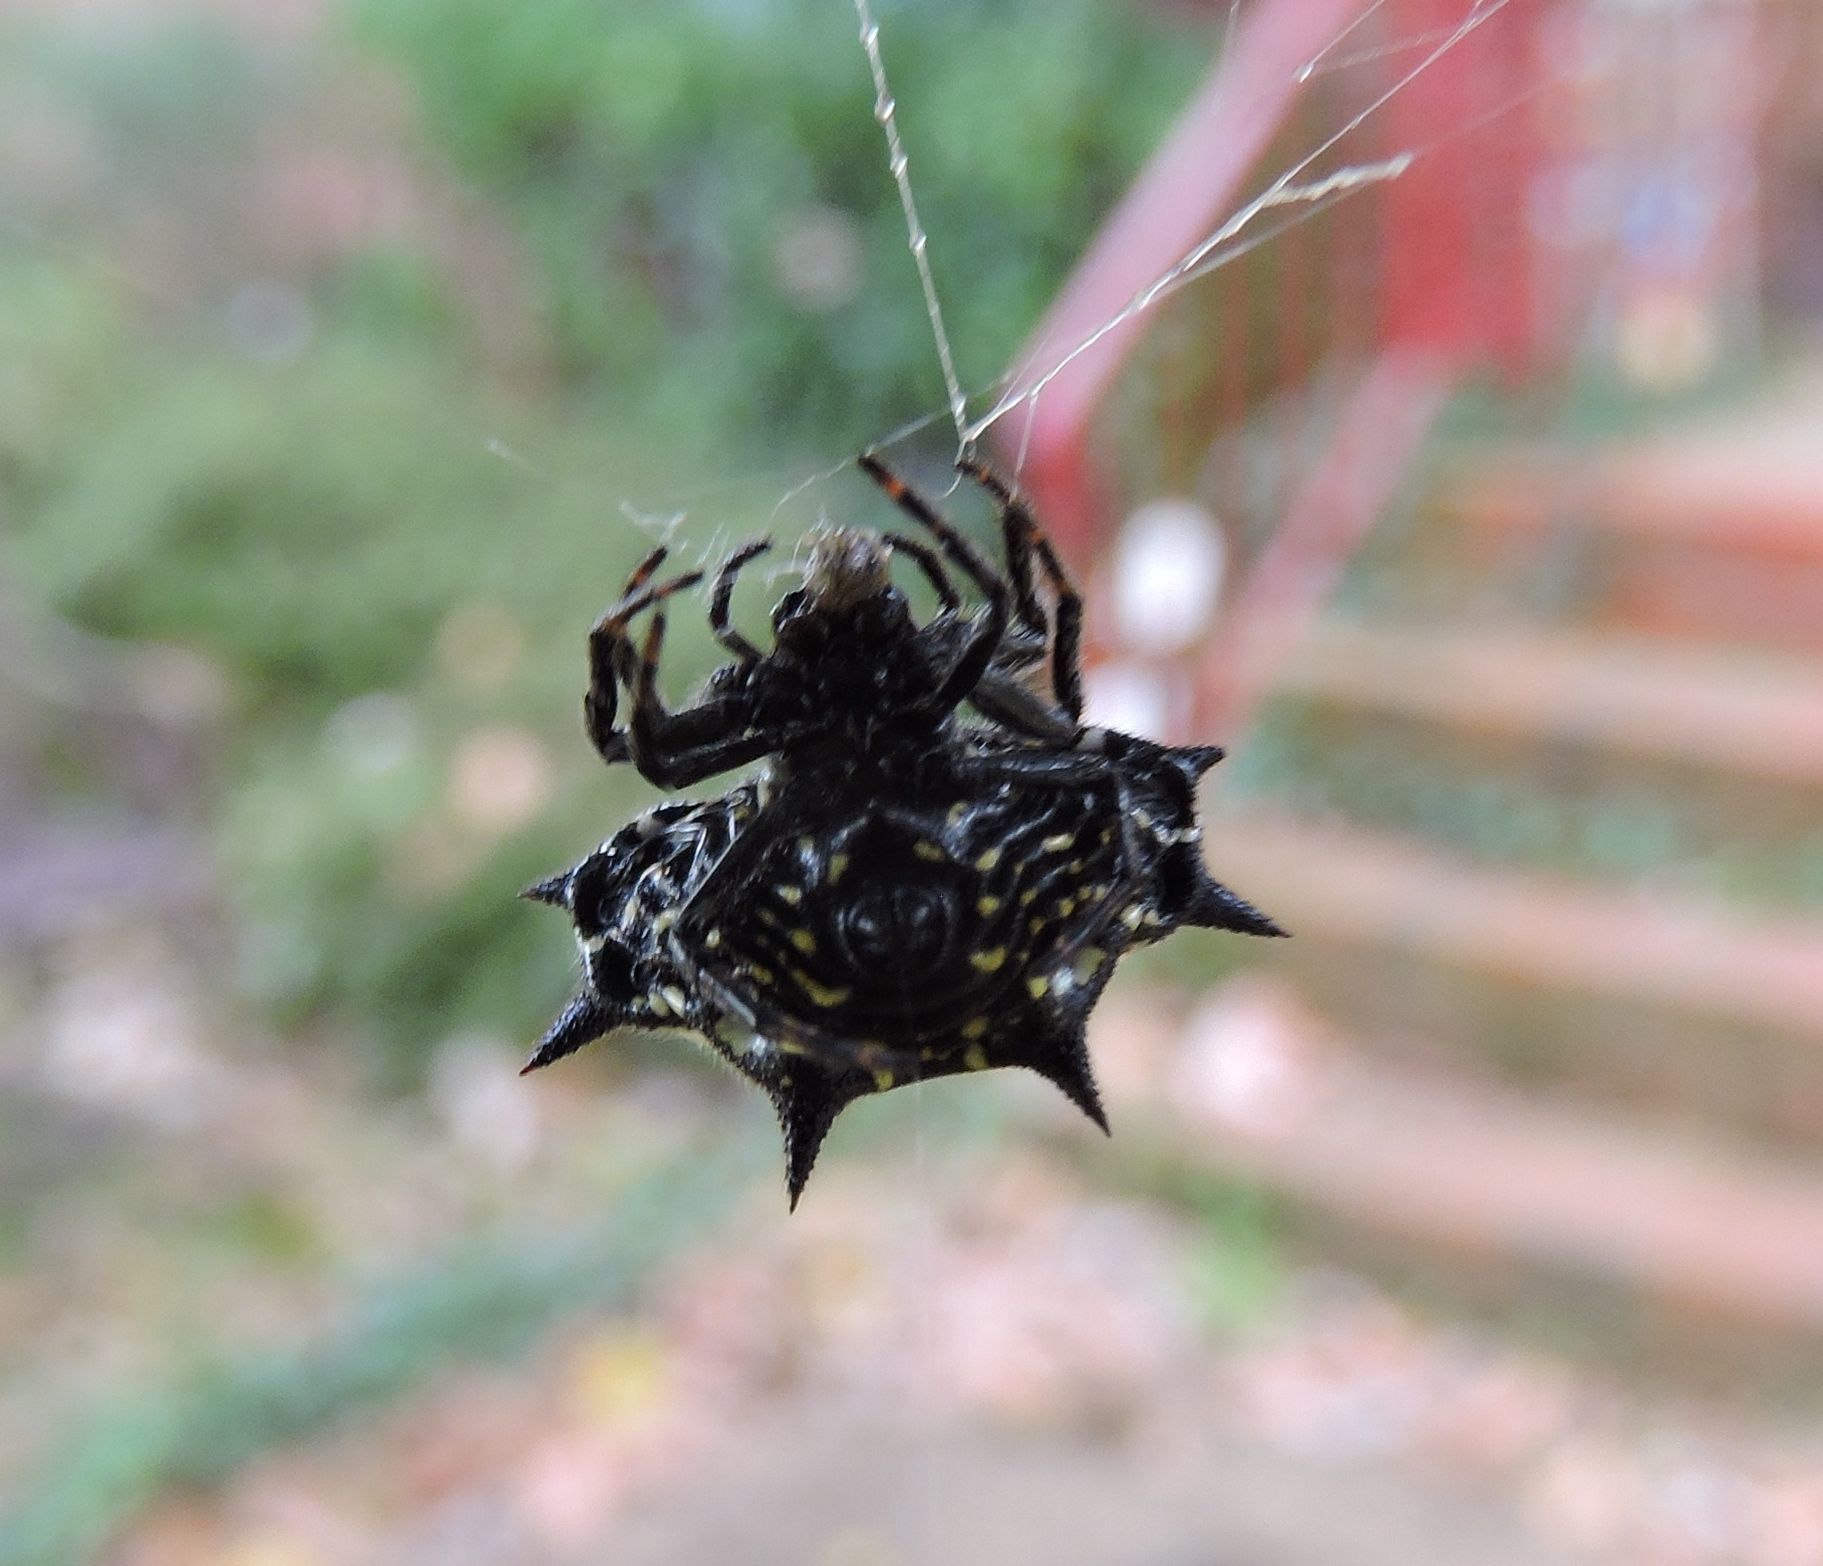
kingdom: Animalia
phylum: Arthropoda
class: Arachnida
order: Araneae
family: Araneidae
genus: Gasteracantha
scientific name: Gasteracantha cancriformis
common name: Orb weavers
